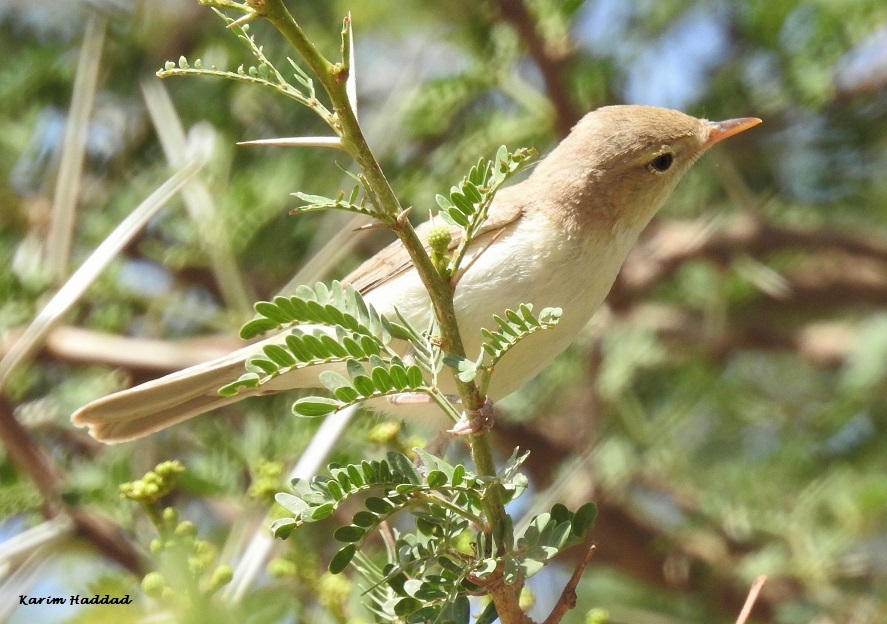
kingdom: Animalia
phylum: Chordata
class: Aves
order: Passeriformes
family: Acrocephalidae
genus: Iduna
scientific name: Iduna pallida
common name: Eastern olivaceous warbler
